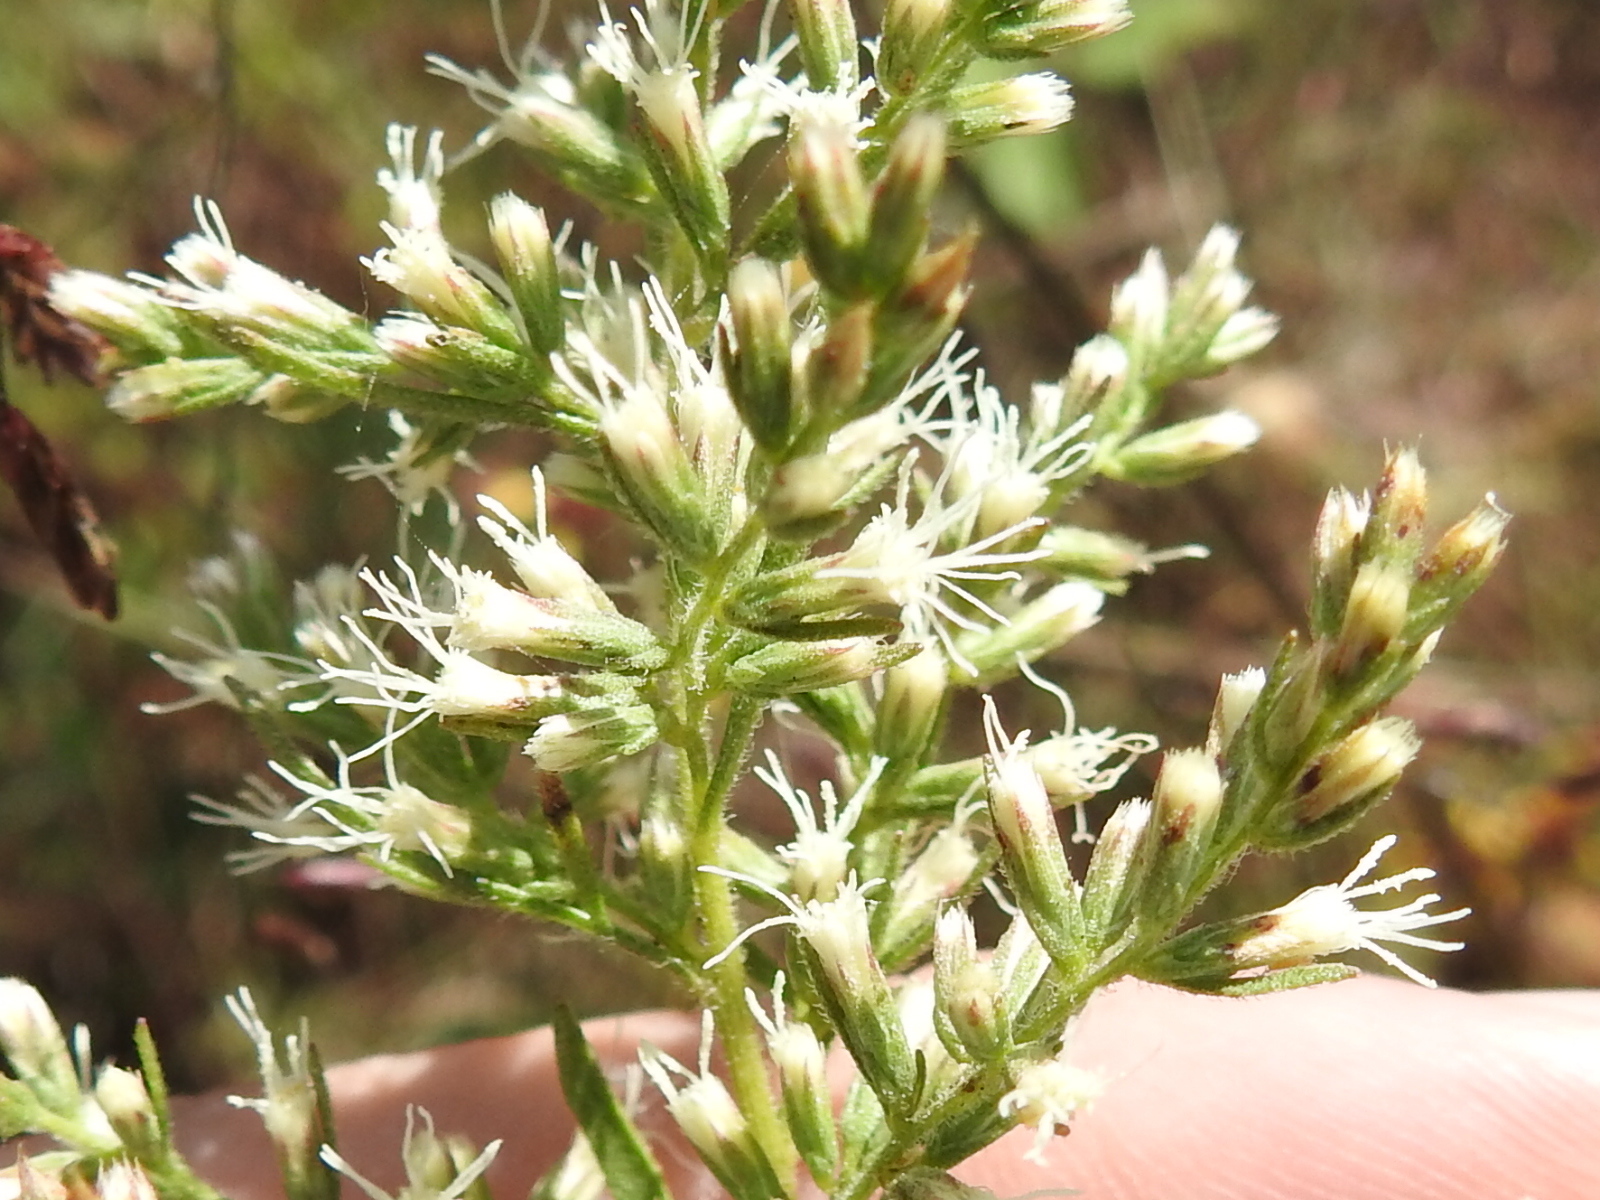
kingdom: Plantae
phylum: Tracheophyta
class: Magnoliopsida
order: Asterales
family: Asteraceae
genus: Eupatorium
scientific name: Eupatorium hyssopifolium
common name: Hyssop-leaf thoroughwort
